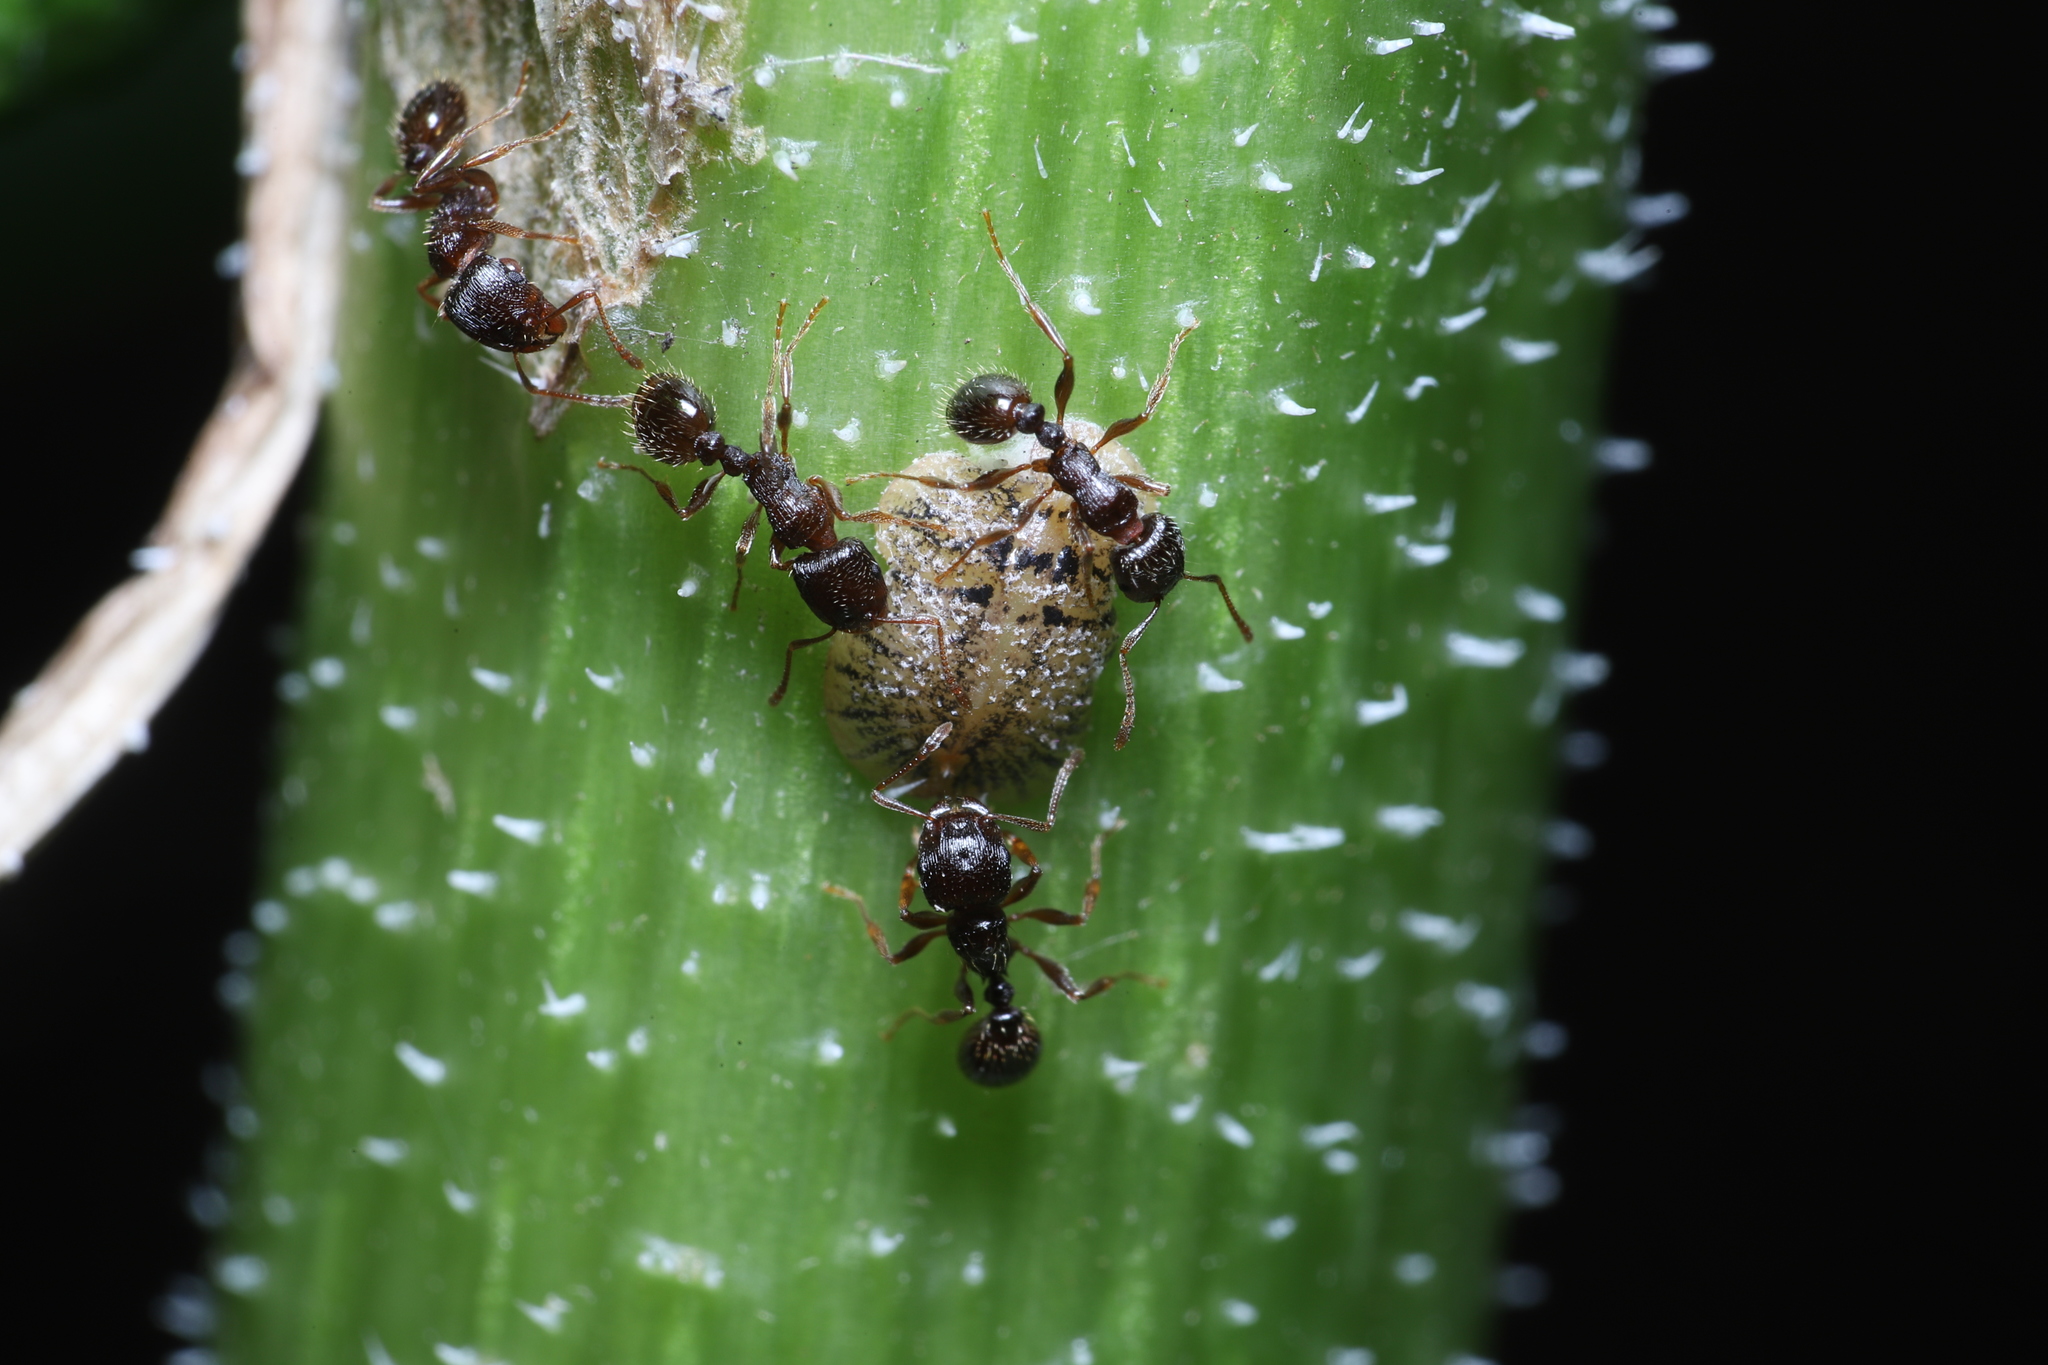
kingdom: Animalia
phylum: Arthropoda
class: Insecta
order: Hymenoptera
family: Formicidae
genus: Tetramorium
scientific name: Tetramorium immigrans
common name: Pavement ant
